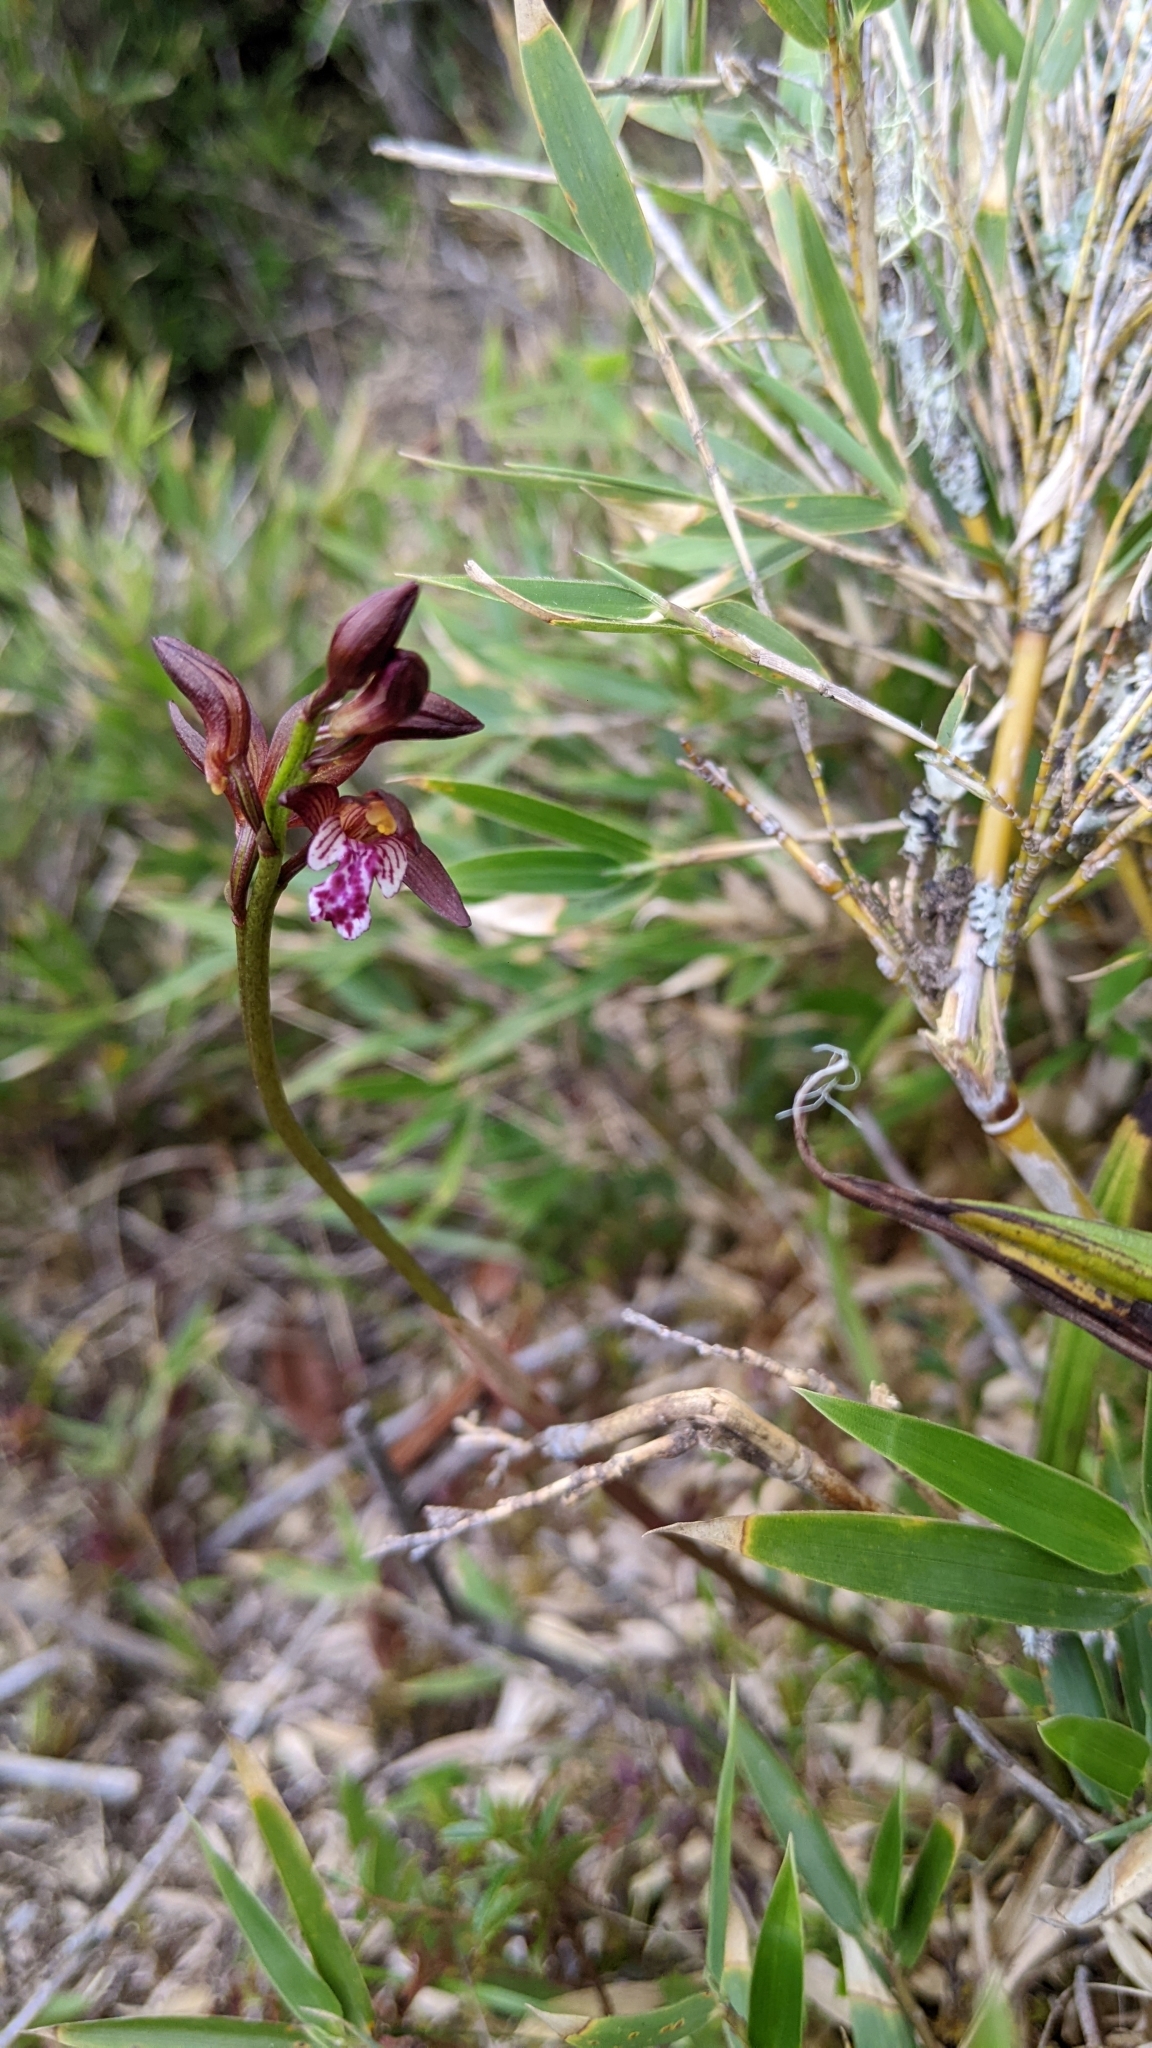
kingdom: Plantae
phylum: Tracheophyta
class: Liliopsida
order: Asparagales
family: Orchidaceae
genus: Oreorchis
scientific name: Oreorchis indica
